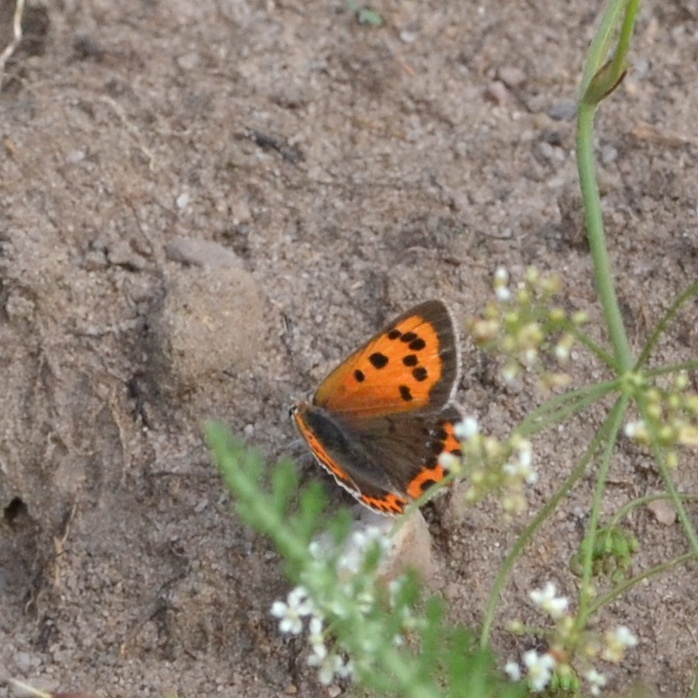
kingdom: Animalia
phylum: Arthropoda
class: Insecta
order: Lepidoptera
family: Lycaenidae
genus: Lycaena
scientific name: Lycaena phlaeas
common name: Small copper
